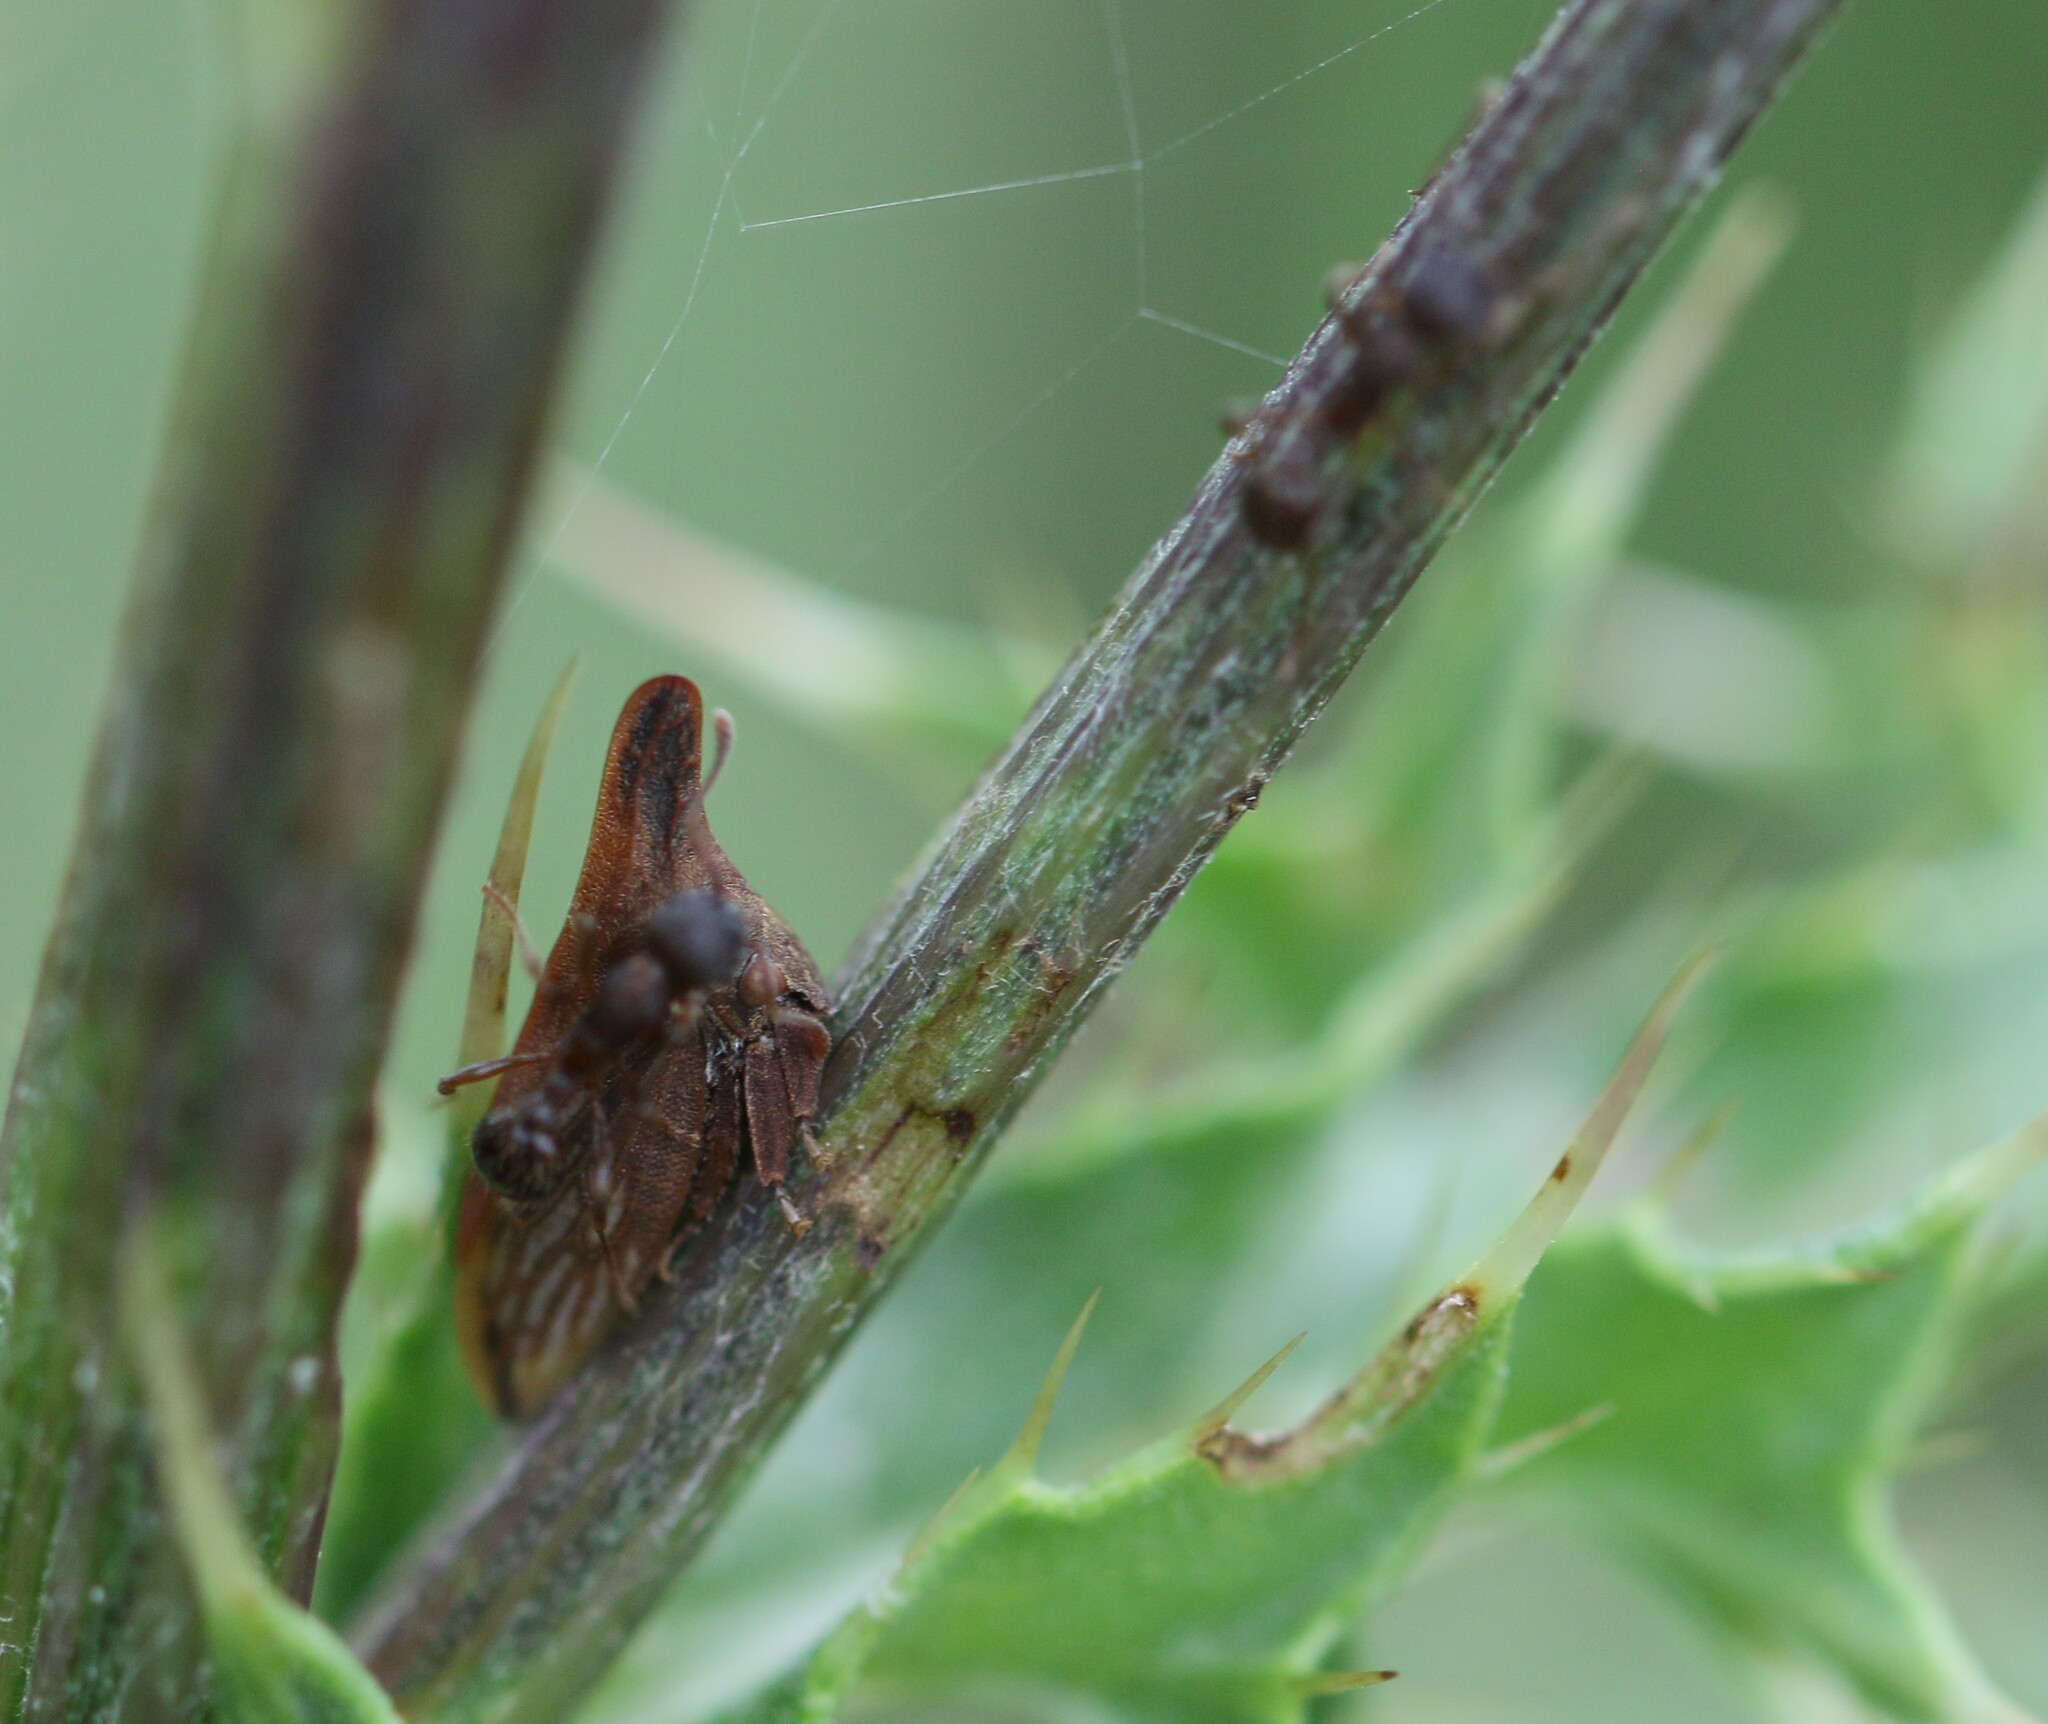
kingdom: Animalia
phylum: Arthropoda
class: Insecta
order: Hemiptera
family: Membracidae
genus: Enchenopa
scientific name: Enchenopa latipes
